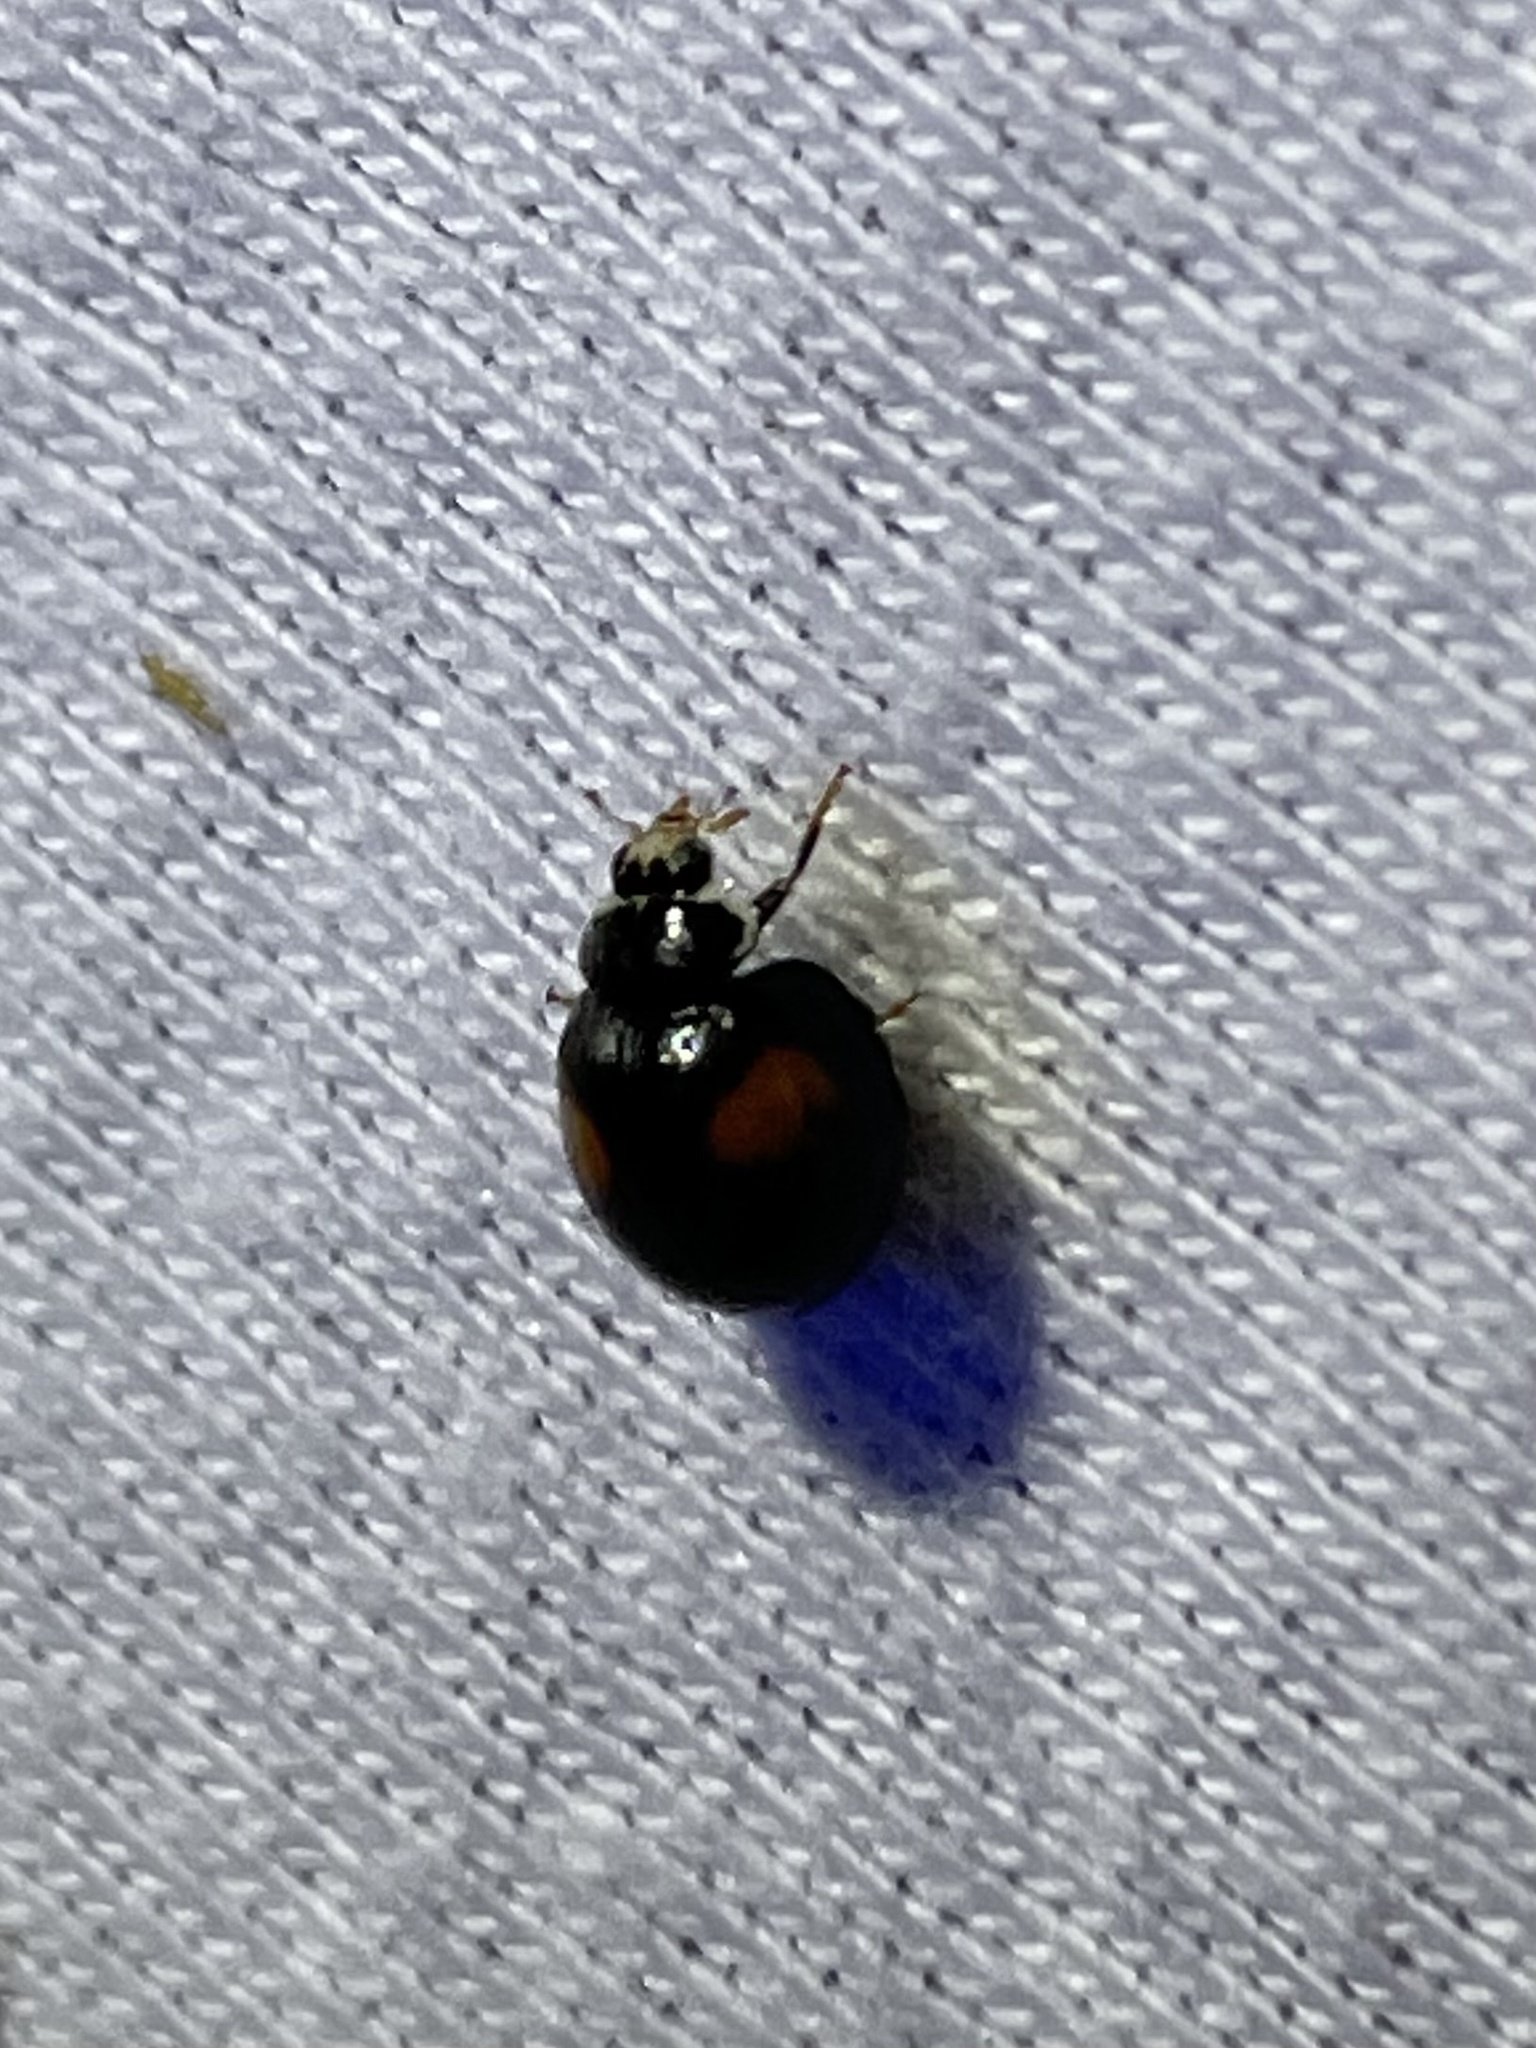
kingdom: Animalia
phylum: Arthropoda
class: Insecta
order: Coleoptera
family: Coccinellidae
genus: Olla
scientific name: Olla v-nigrum
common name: Ashy gray lady beetle
